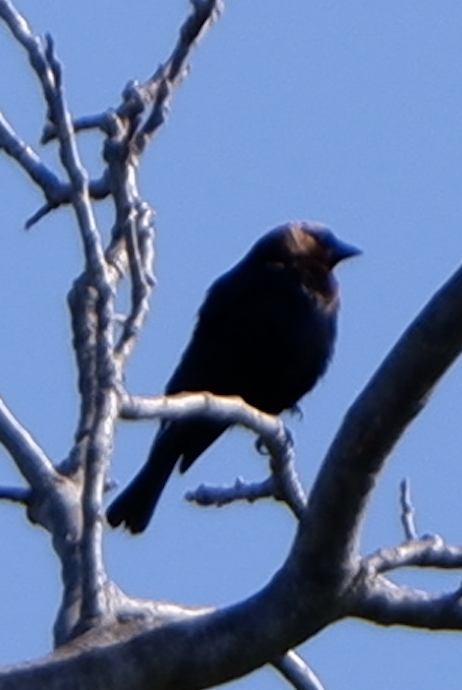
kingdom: Animalia
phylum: Chordata
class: Aves
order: Passeriformes
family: Icteridae
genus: Molothrus
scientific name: Molothrus ater
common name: Brown-headed cowbird
